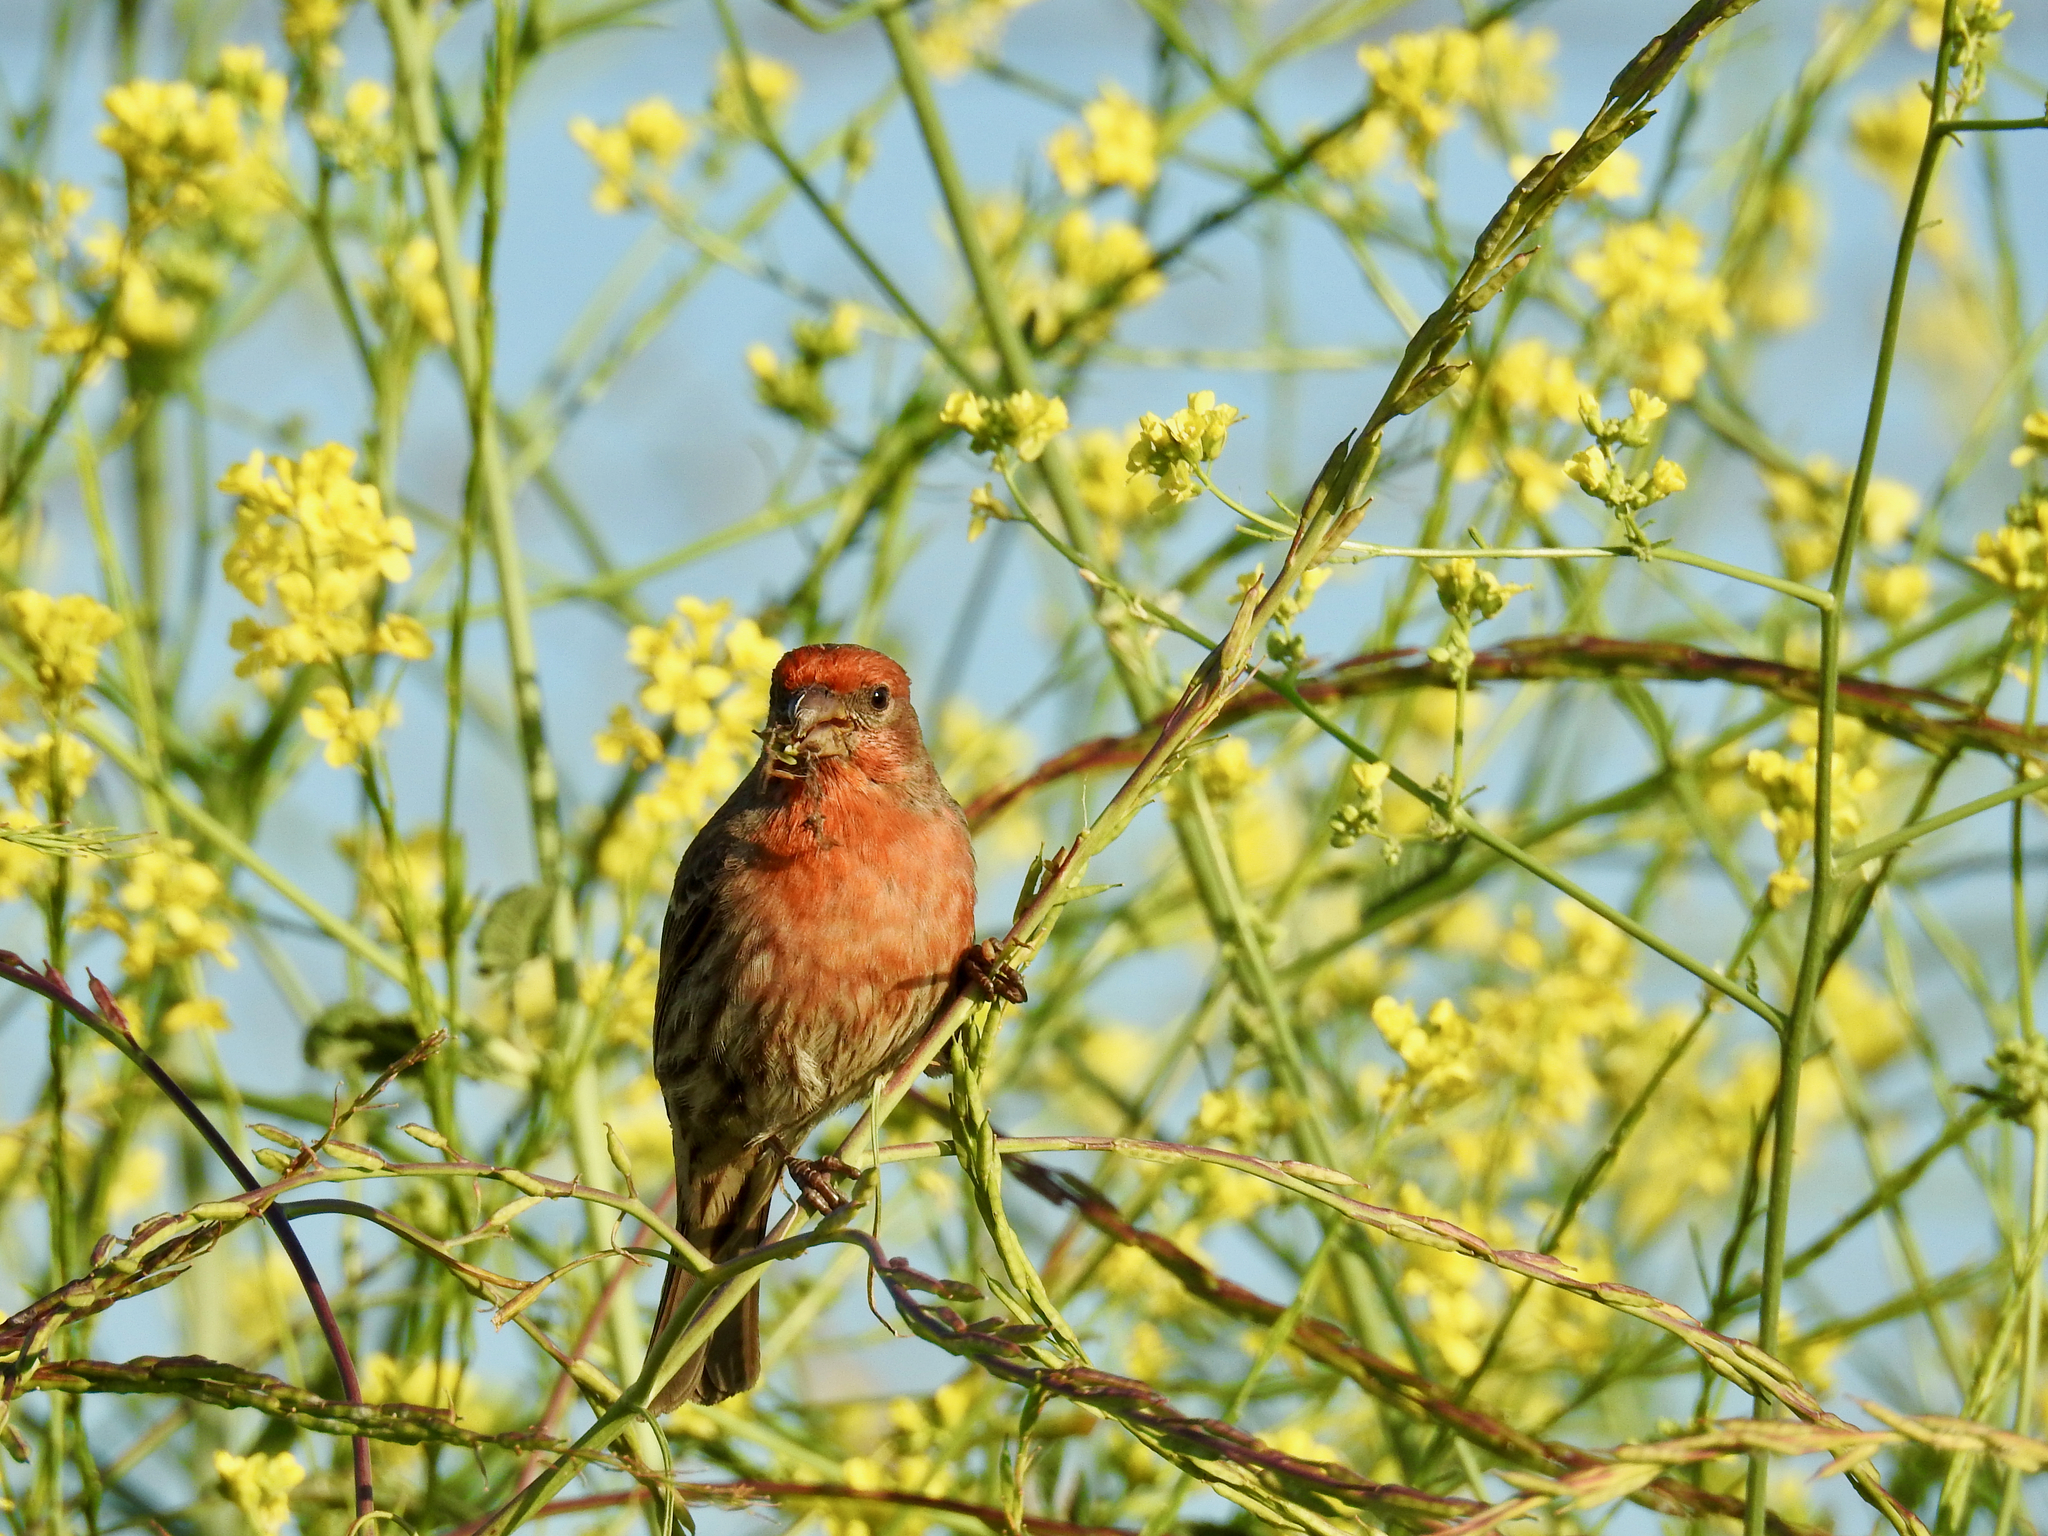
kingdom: Animalia
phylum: Chordata
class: Aves
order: Passeriformes
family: Fringillidae
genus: Haemorhous
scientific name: Haemorhous mexicanus
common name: House finch
